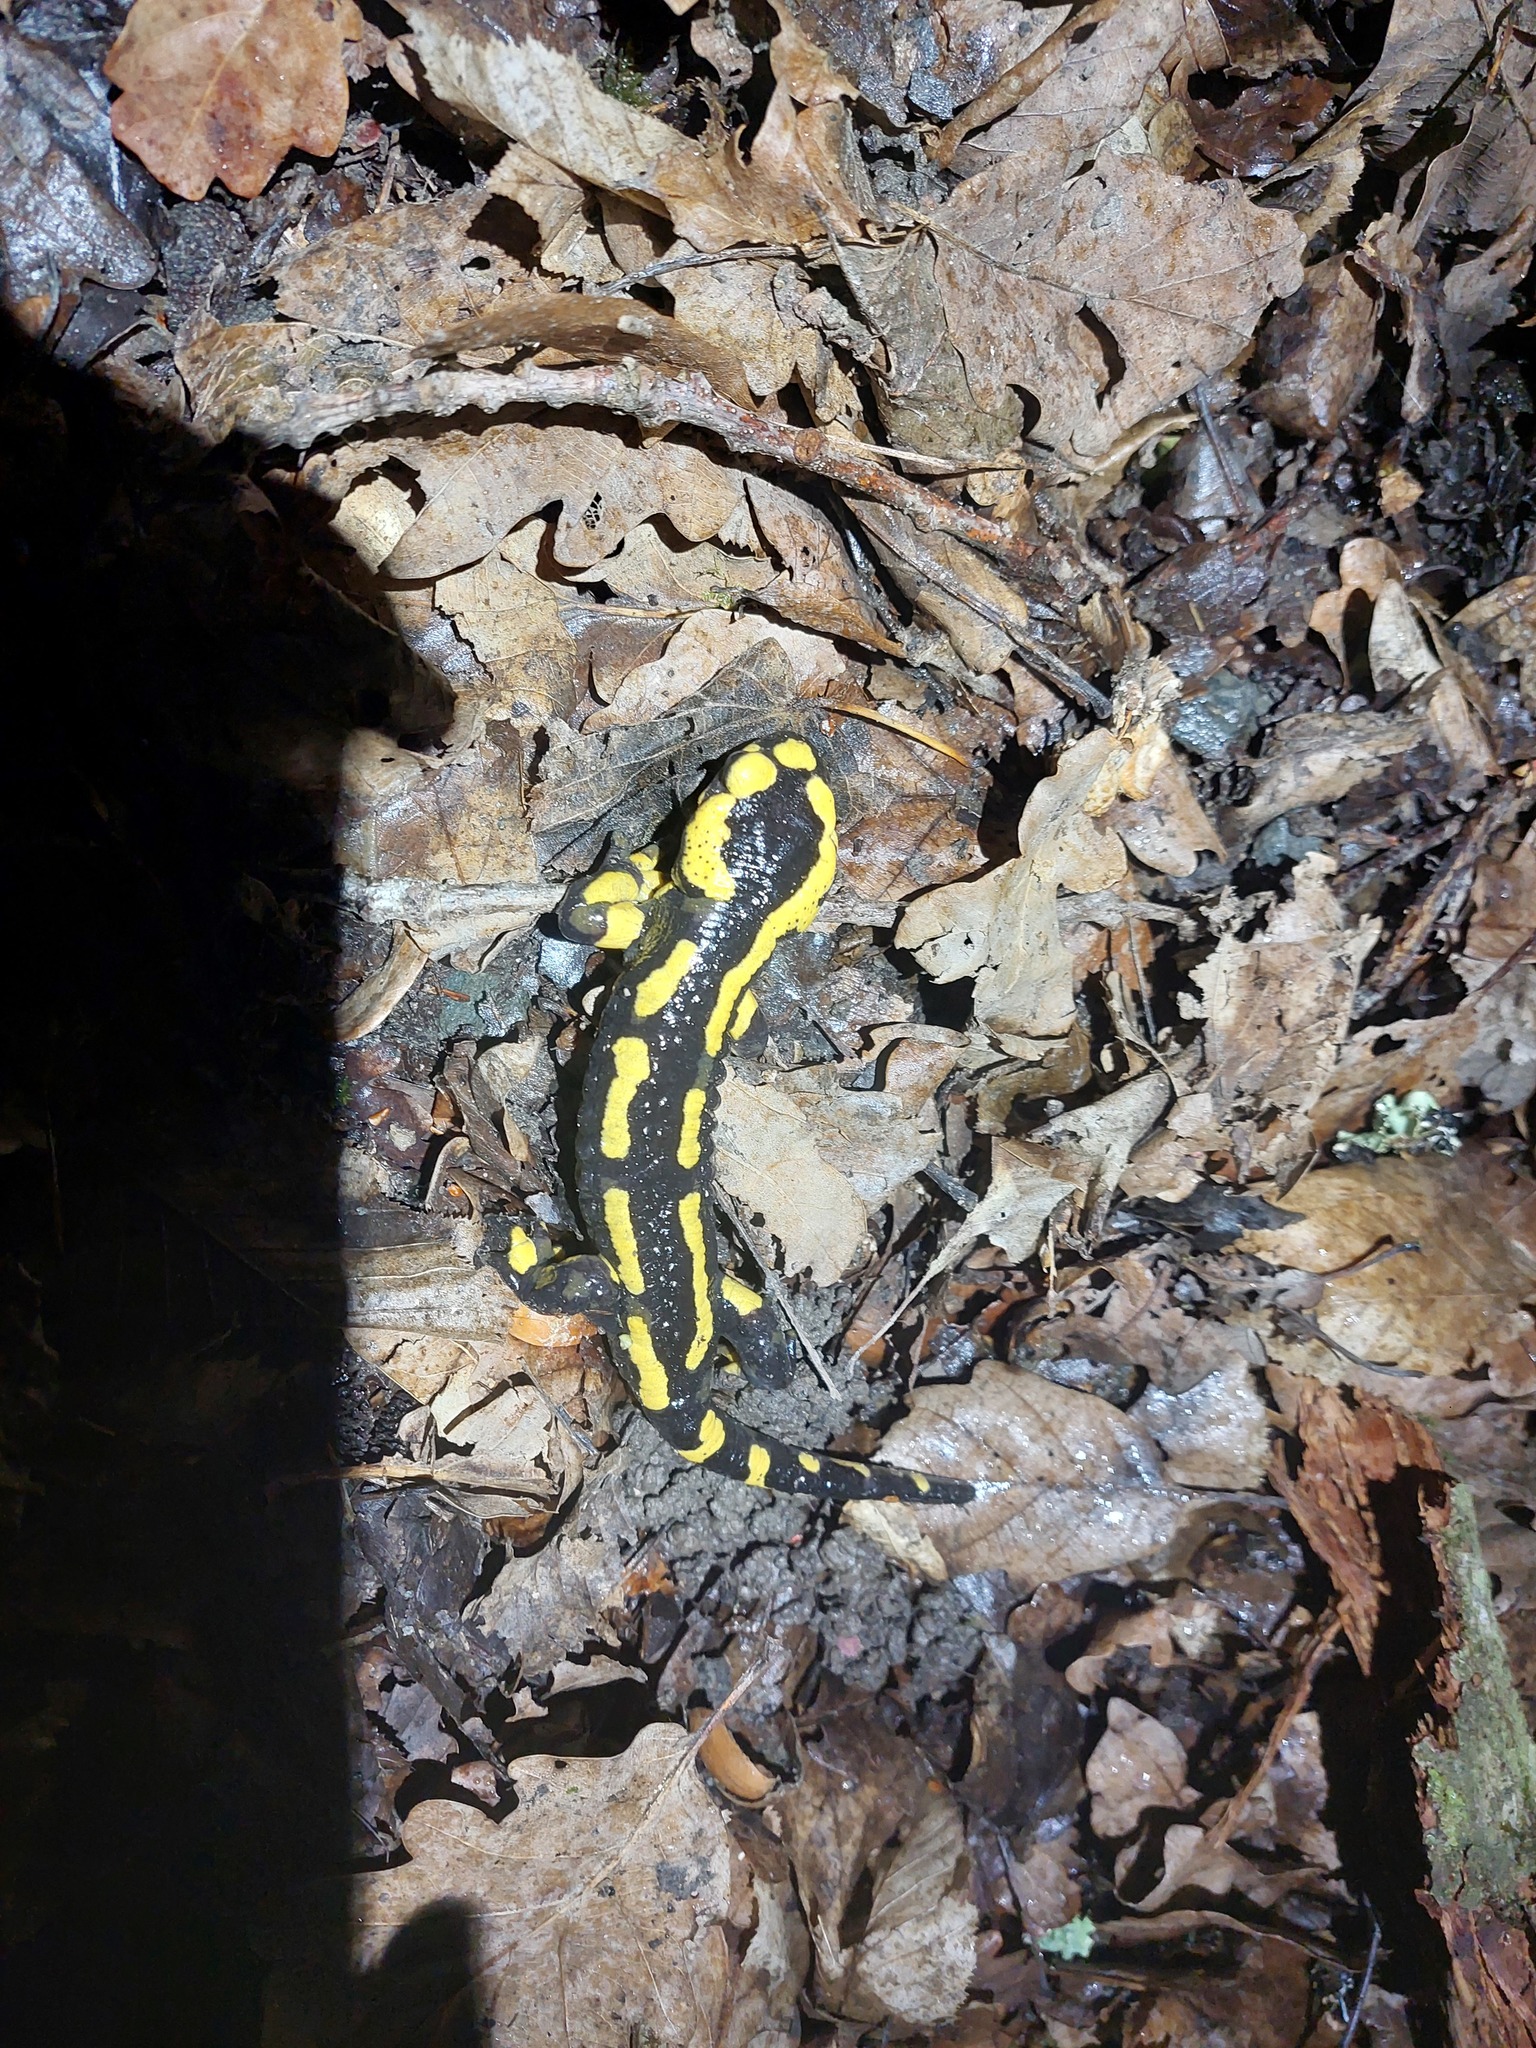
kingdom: Animalia
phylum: Chordata
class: Amphibia
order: Caudata
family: Salamandridae
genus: Salamandra
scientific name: Salamandra salamandra
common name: Fire salamander
